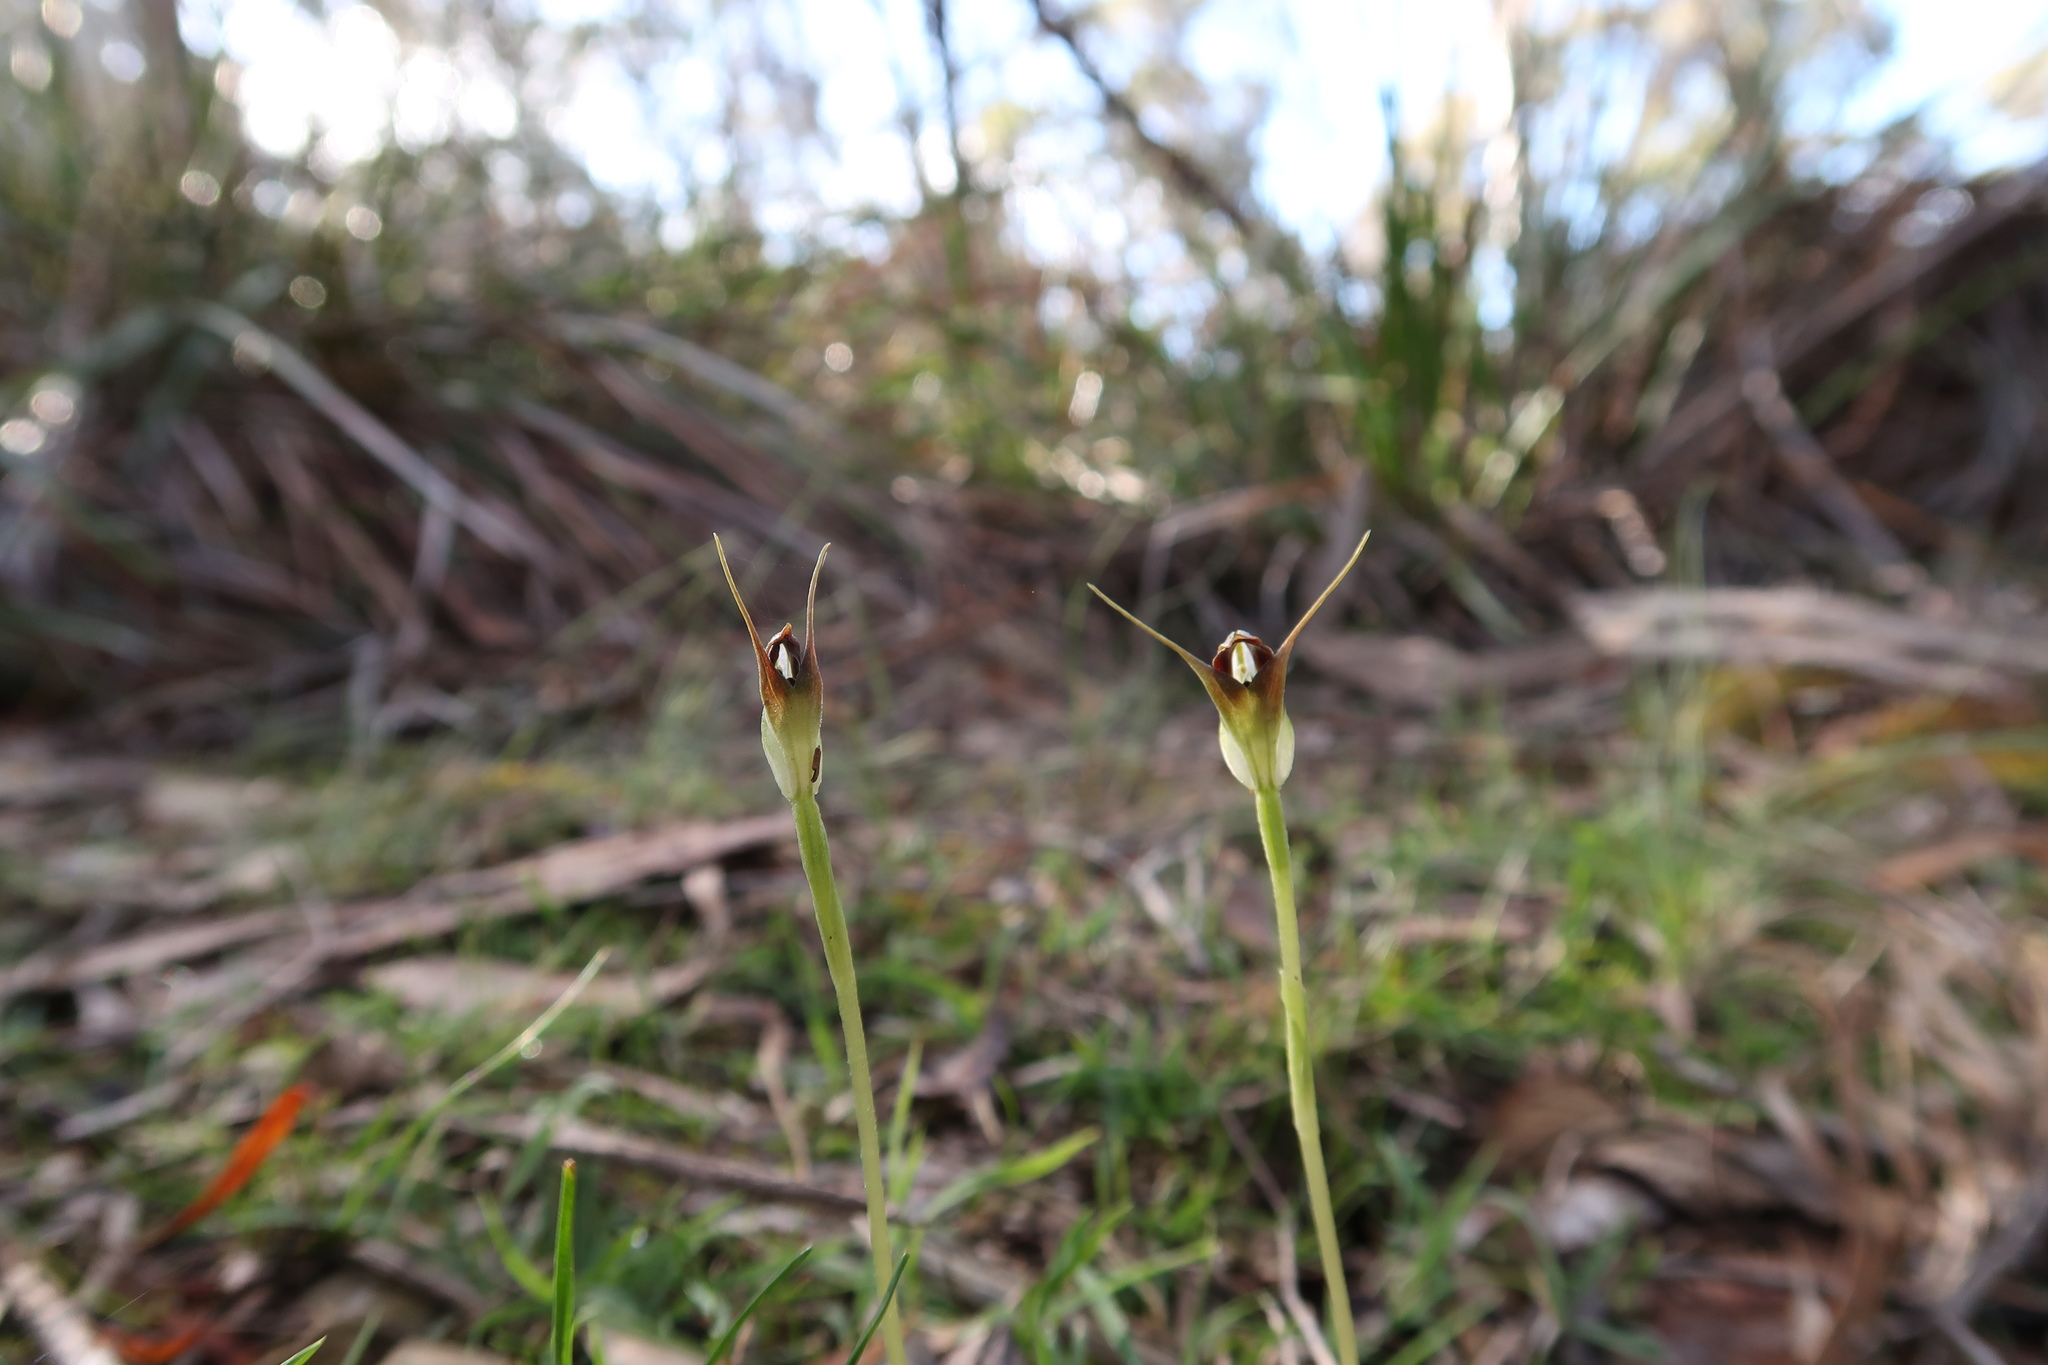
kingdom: Plantae
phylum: Tracheophyta
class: Liliopsida
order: Asparagales
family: Orchidaceae
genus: Pterostylis
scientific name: Pterostylis pedunculata
